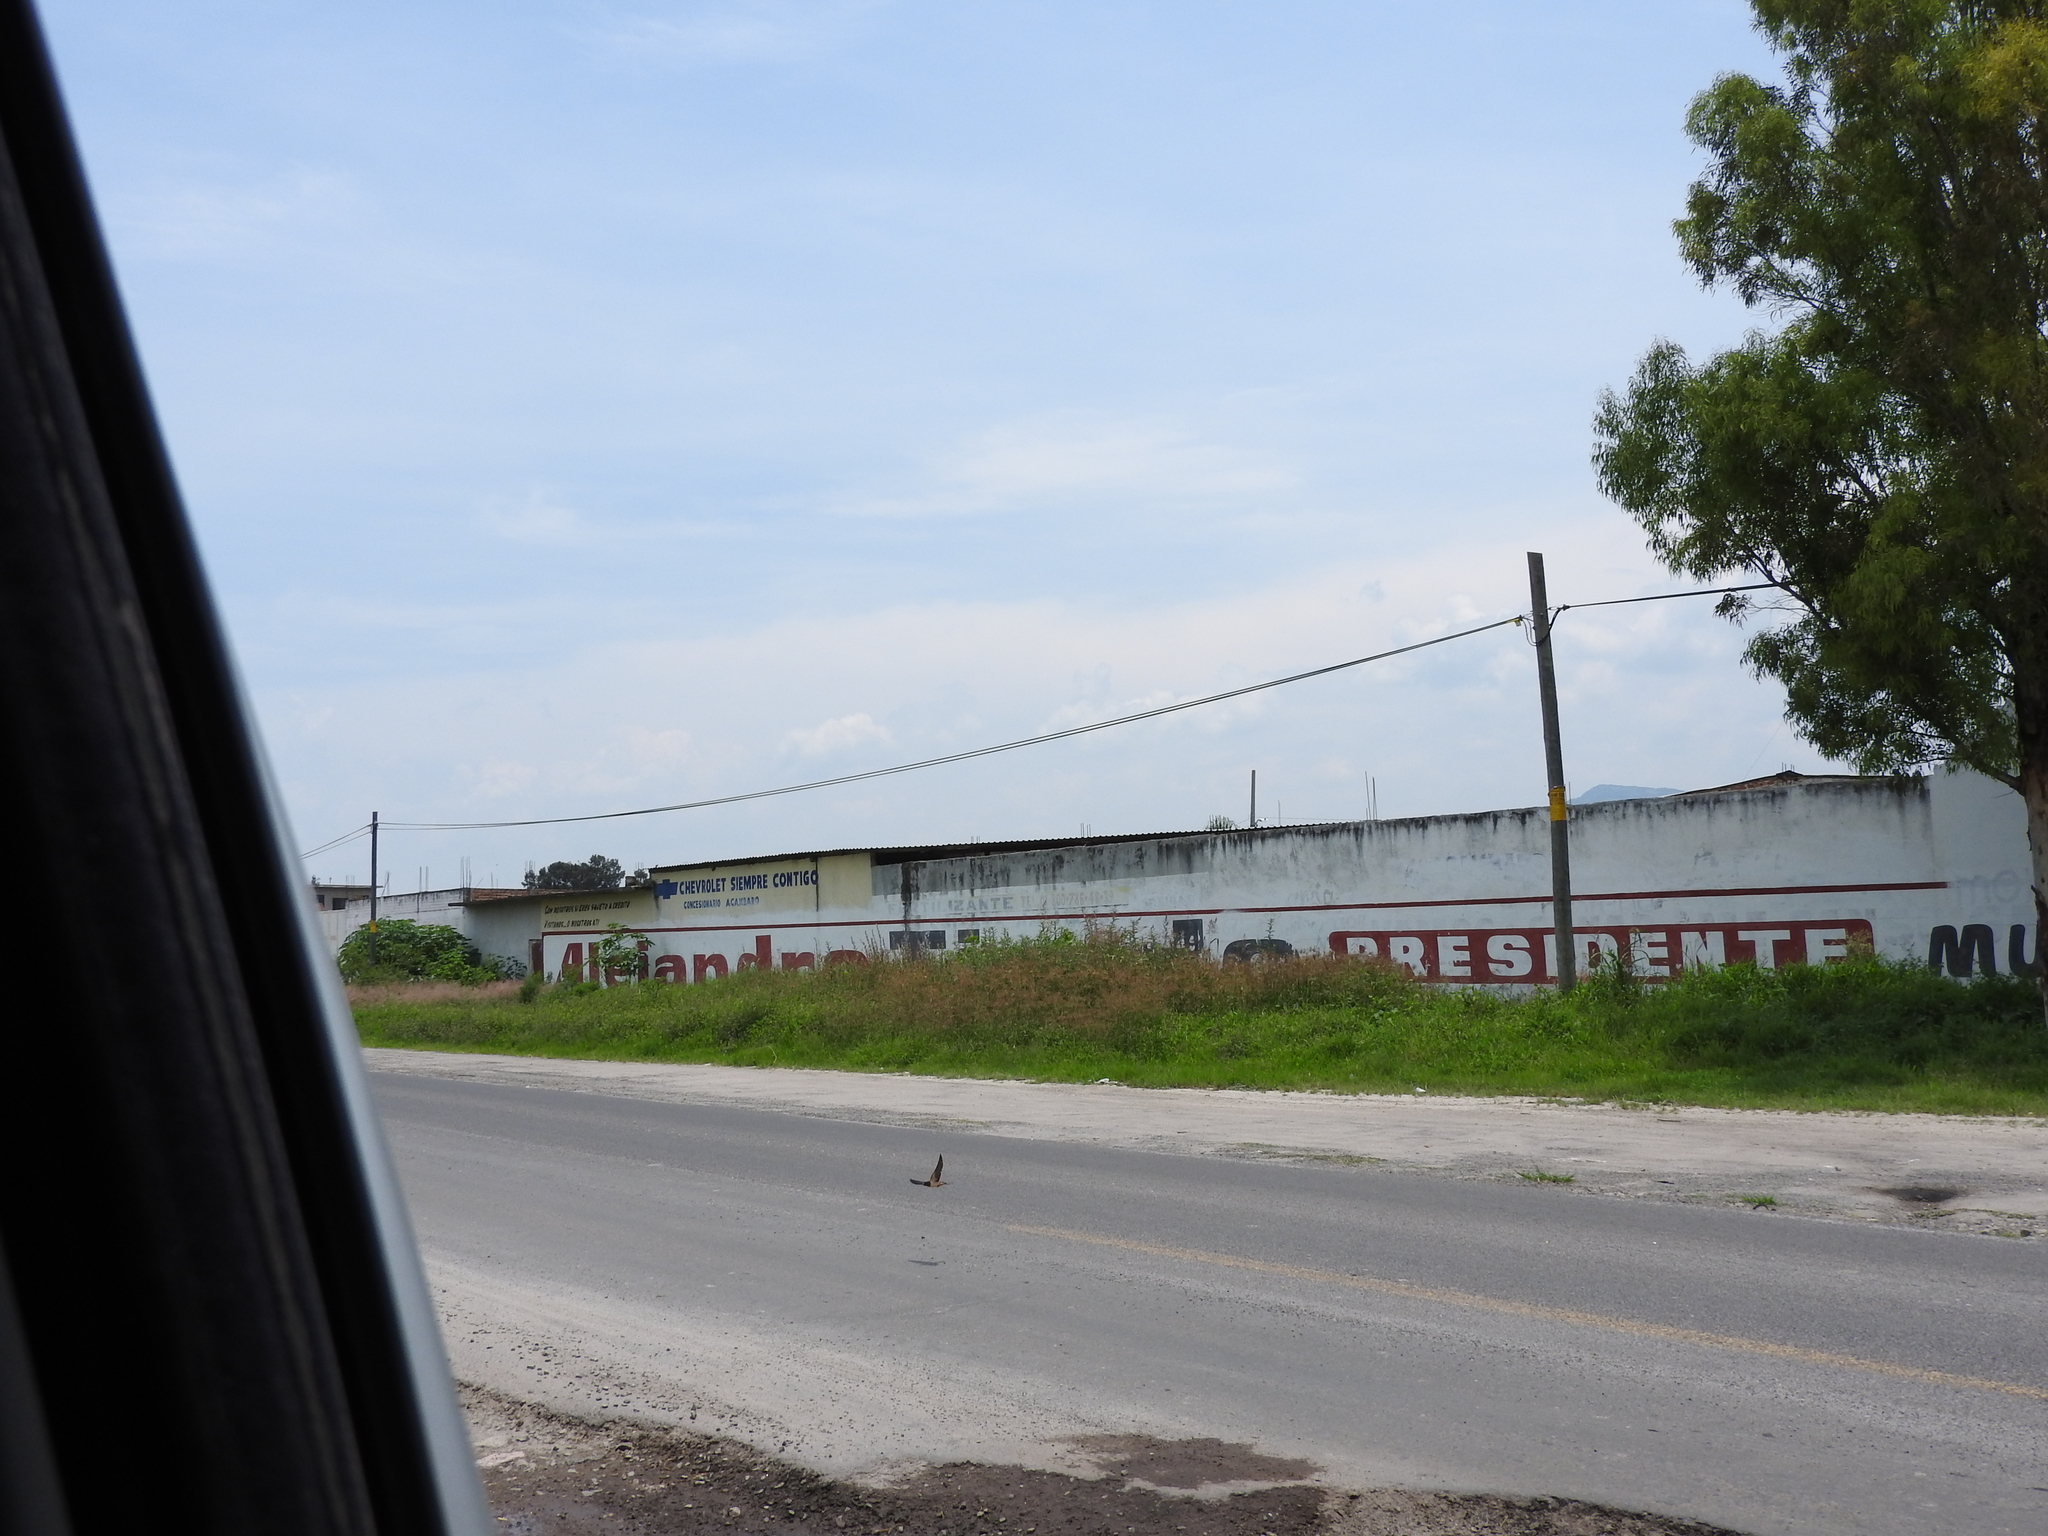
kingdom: Animalia
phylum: Chordata
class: Aves
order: Passeriformes
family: Hirundinidae
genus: Hirundo
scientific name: Hirundo rustica
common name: Barn swallow
